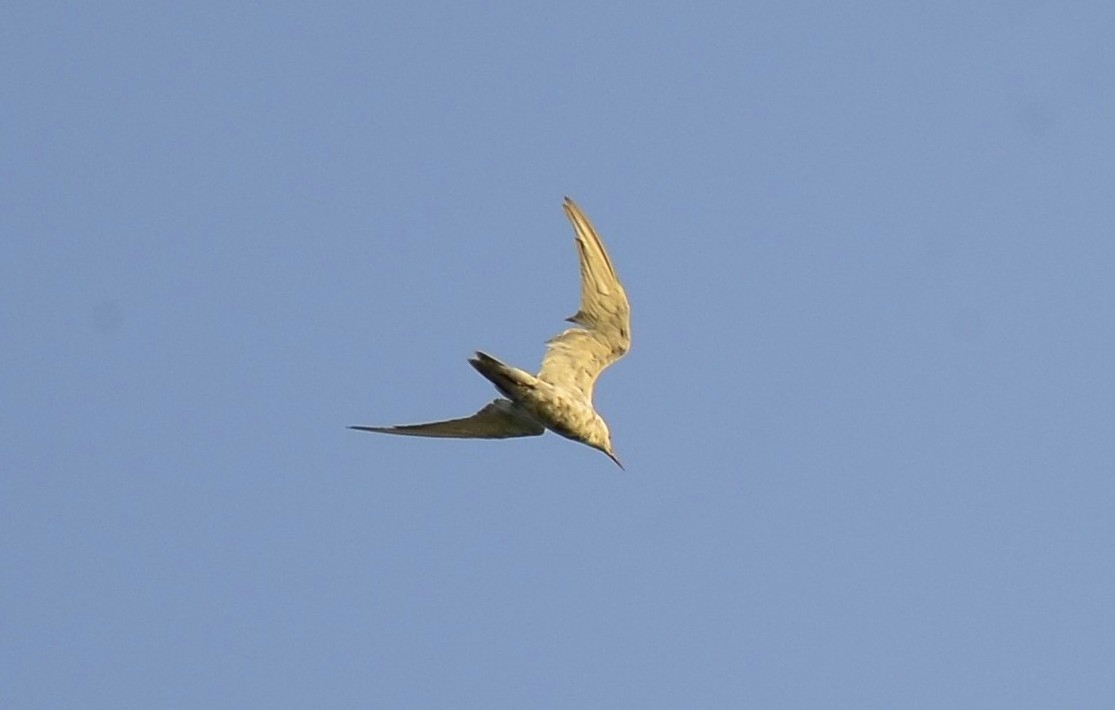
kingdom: Animalia
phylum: Chordata
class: Aves
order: Charadriiformes
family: Laridae
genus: Chlidonias
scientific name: Chlidonias hybrida
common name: Whiskered tern
